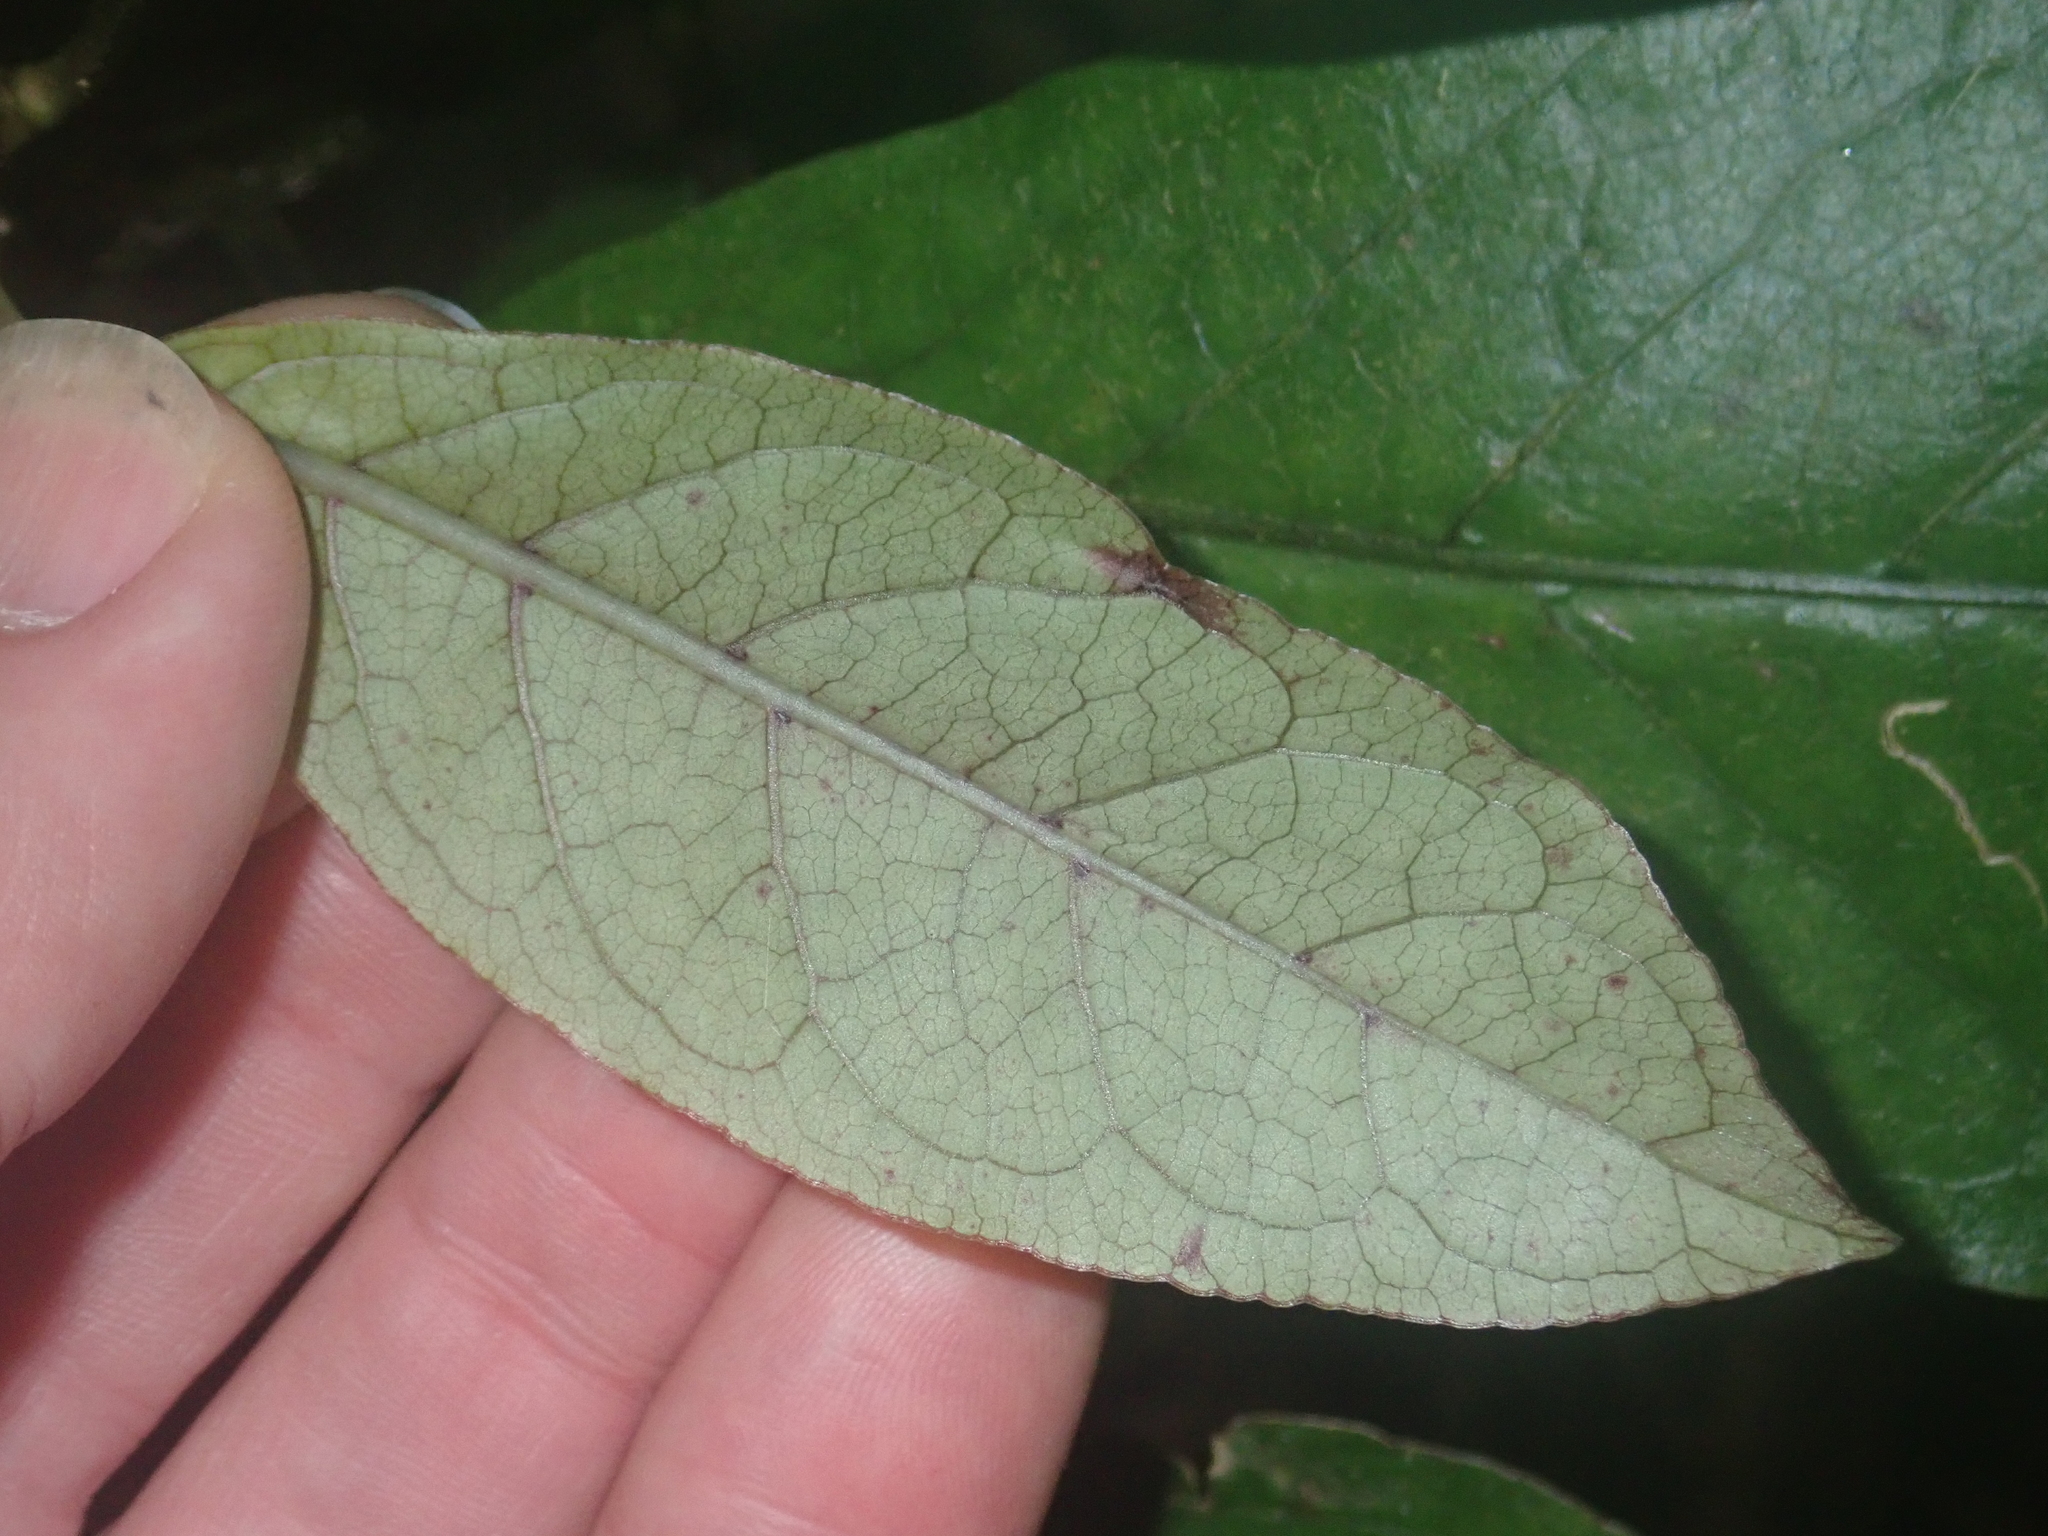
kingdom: Plantae
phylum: Tracheophyta
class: Magnoliopsida
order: Gentianales
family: Rubiaceae
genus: Coprosma
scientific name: Coprosma autumnalis
